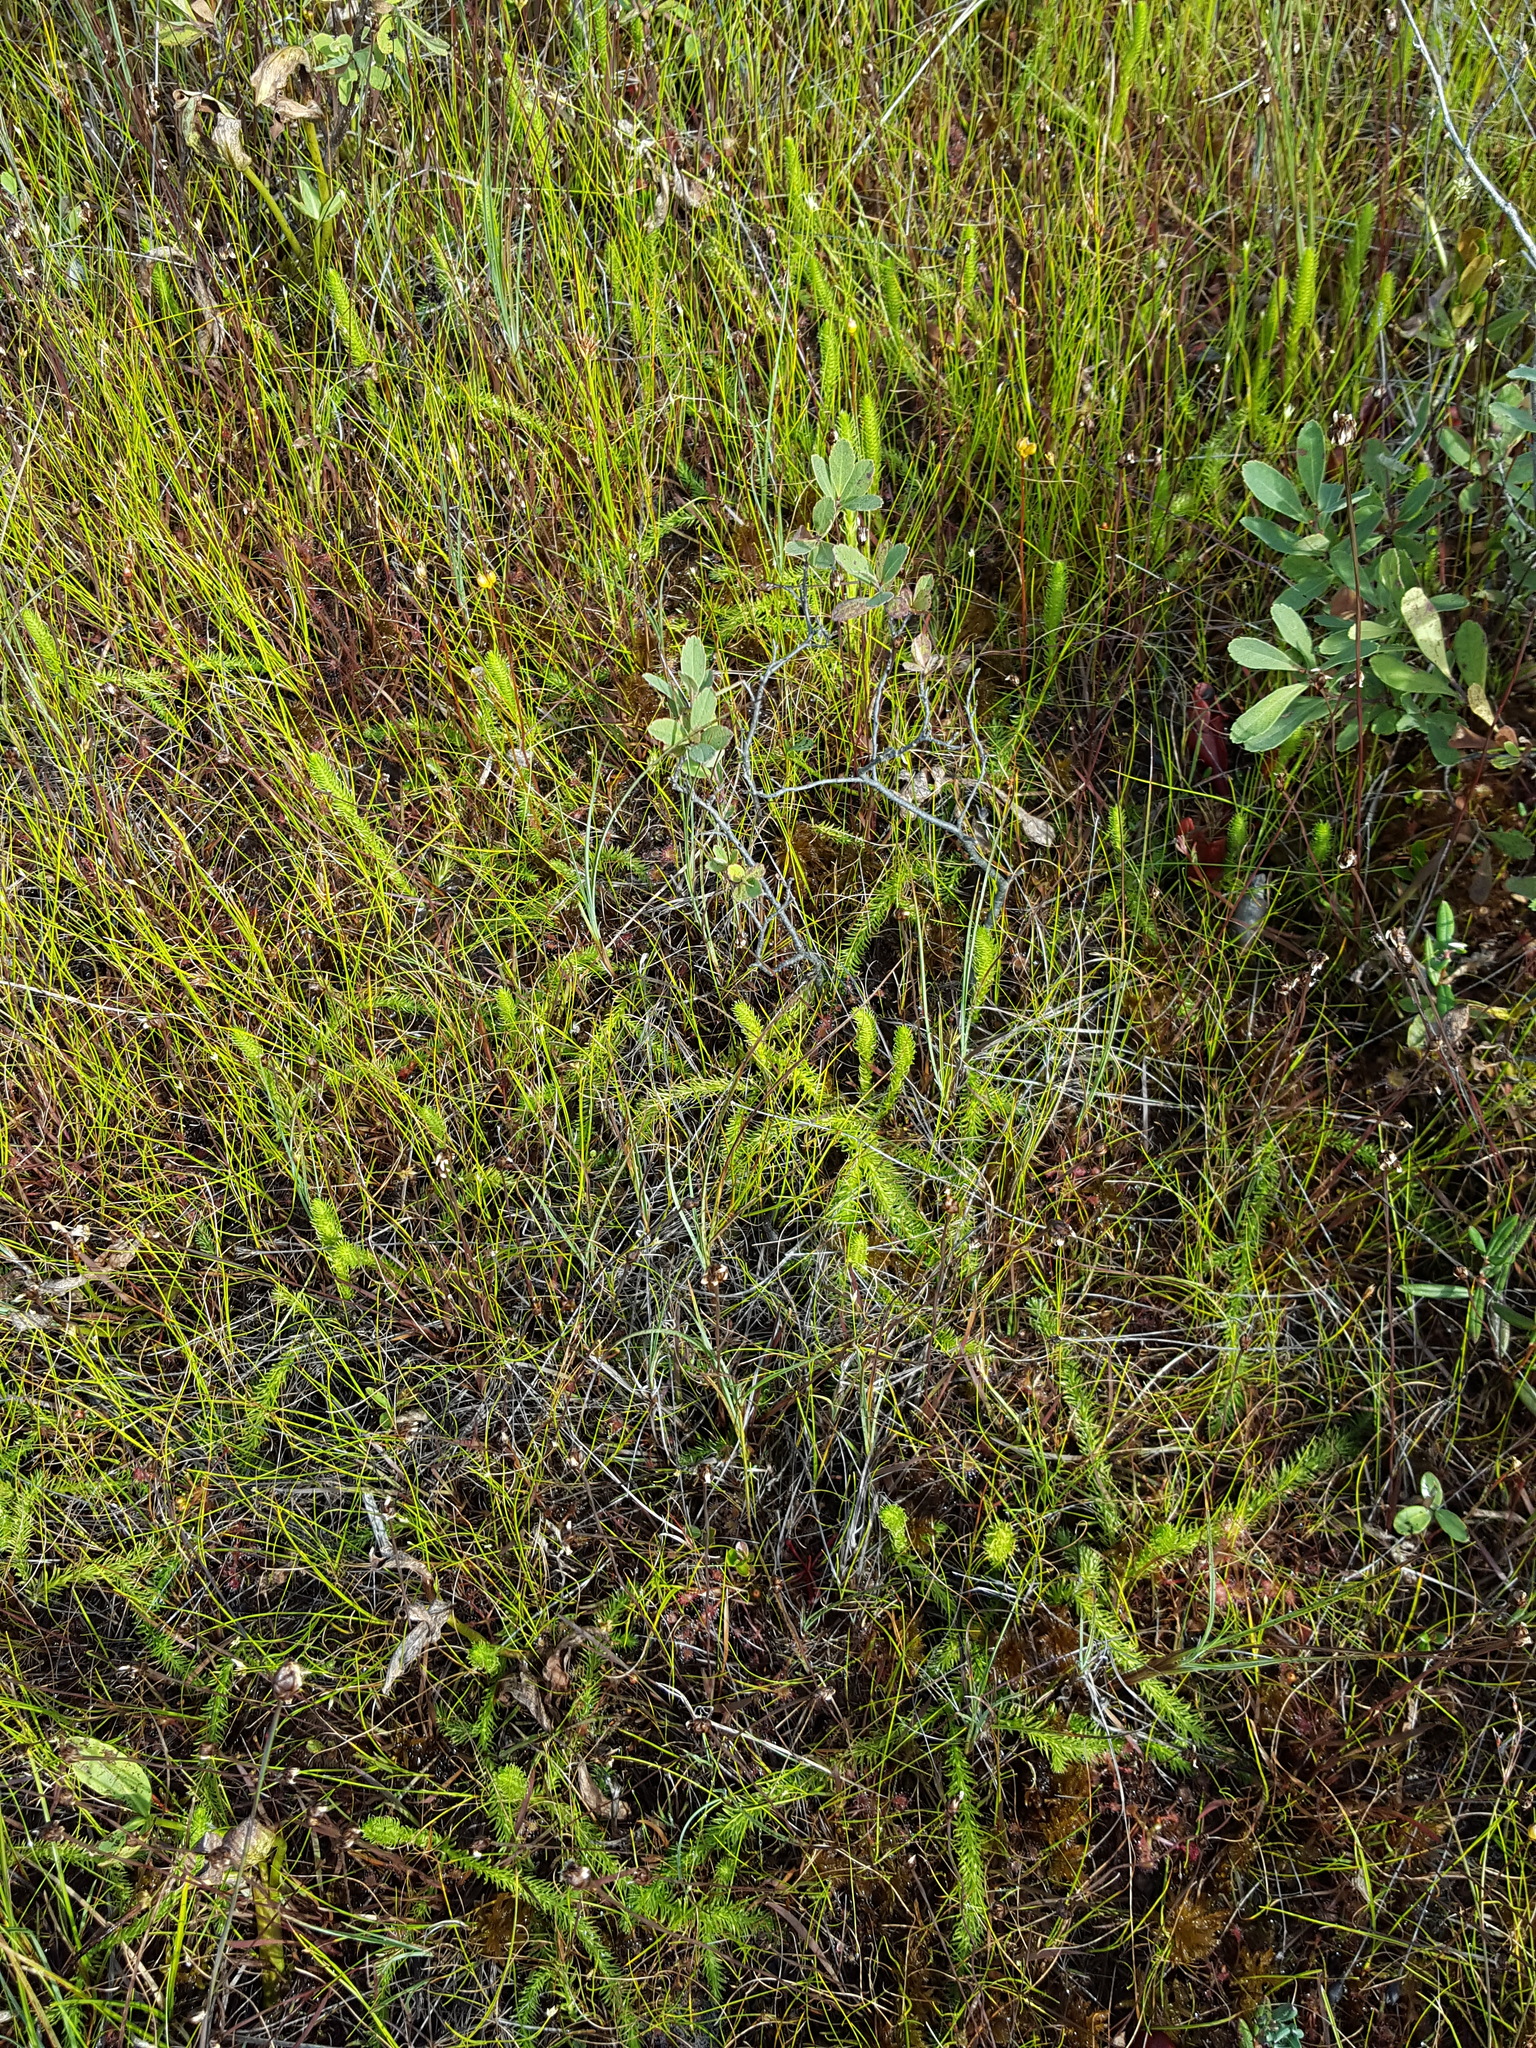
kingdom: Plantae
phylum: Tracheophyta
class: Lycopodiopsida
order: Lycopodiales
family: Lycopodiaceae
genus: Lycopodiella
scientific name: Lycopodiella inundata
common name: Marsh clubmoss
